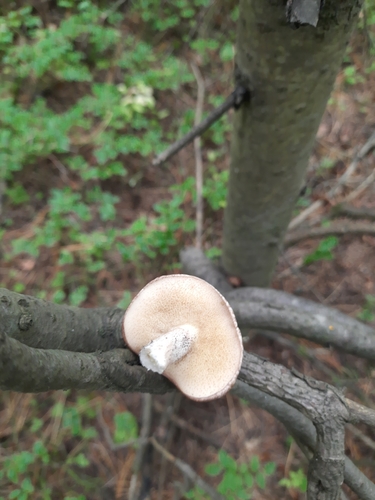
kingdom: Fungi
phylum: Basidiomycota
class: Agaricomycetes
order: Boletales
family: Suillaceae
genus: Suillus
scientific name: Suillus placidus
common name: Slippery white bolete
